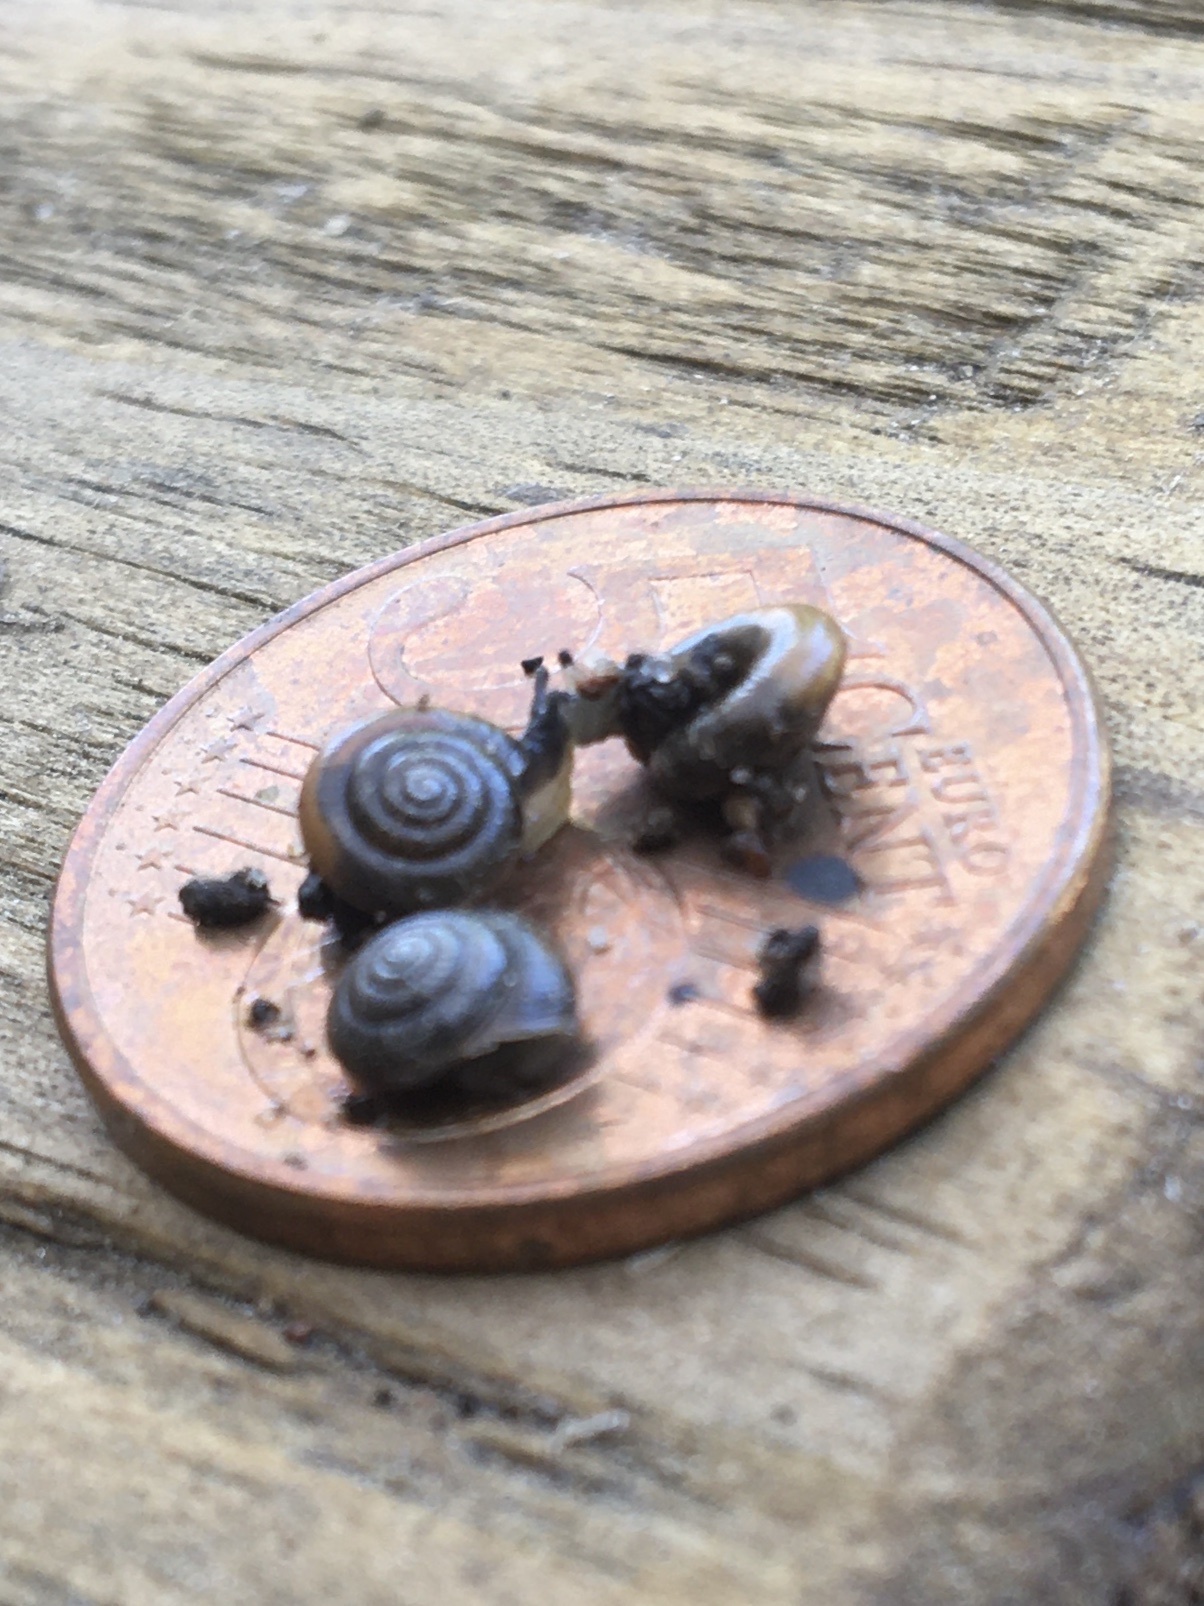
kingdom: Animalia
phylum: Mollusca
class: Gastropoda
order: Stylommatophora
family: Gastrodontidae
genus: Zonitoides
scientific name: Zonitoides arboreus
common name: Quick gloss
